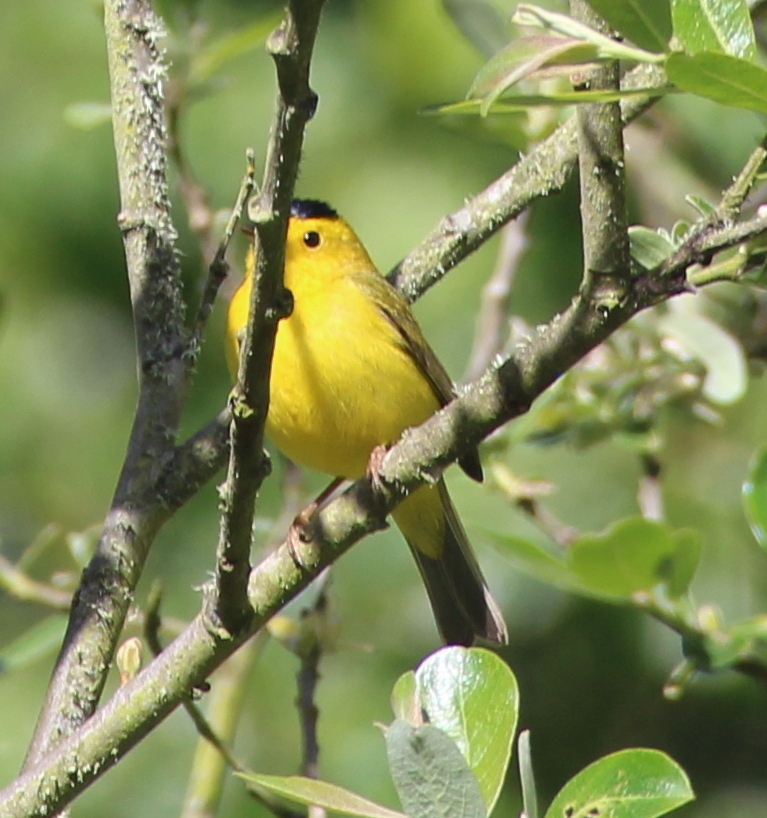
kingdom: Animalia
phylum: Chordata
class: Aves
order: Passeriformes
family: Parulidae
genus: Cardellina
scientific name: Cardellina pusilla
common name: Wilson's warbler
